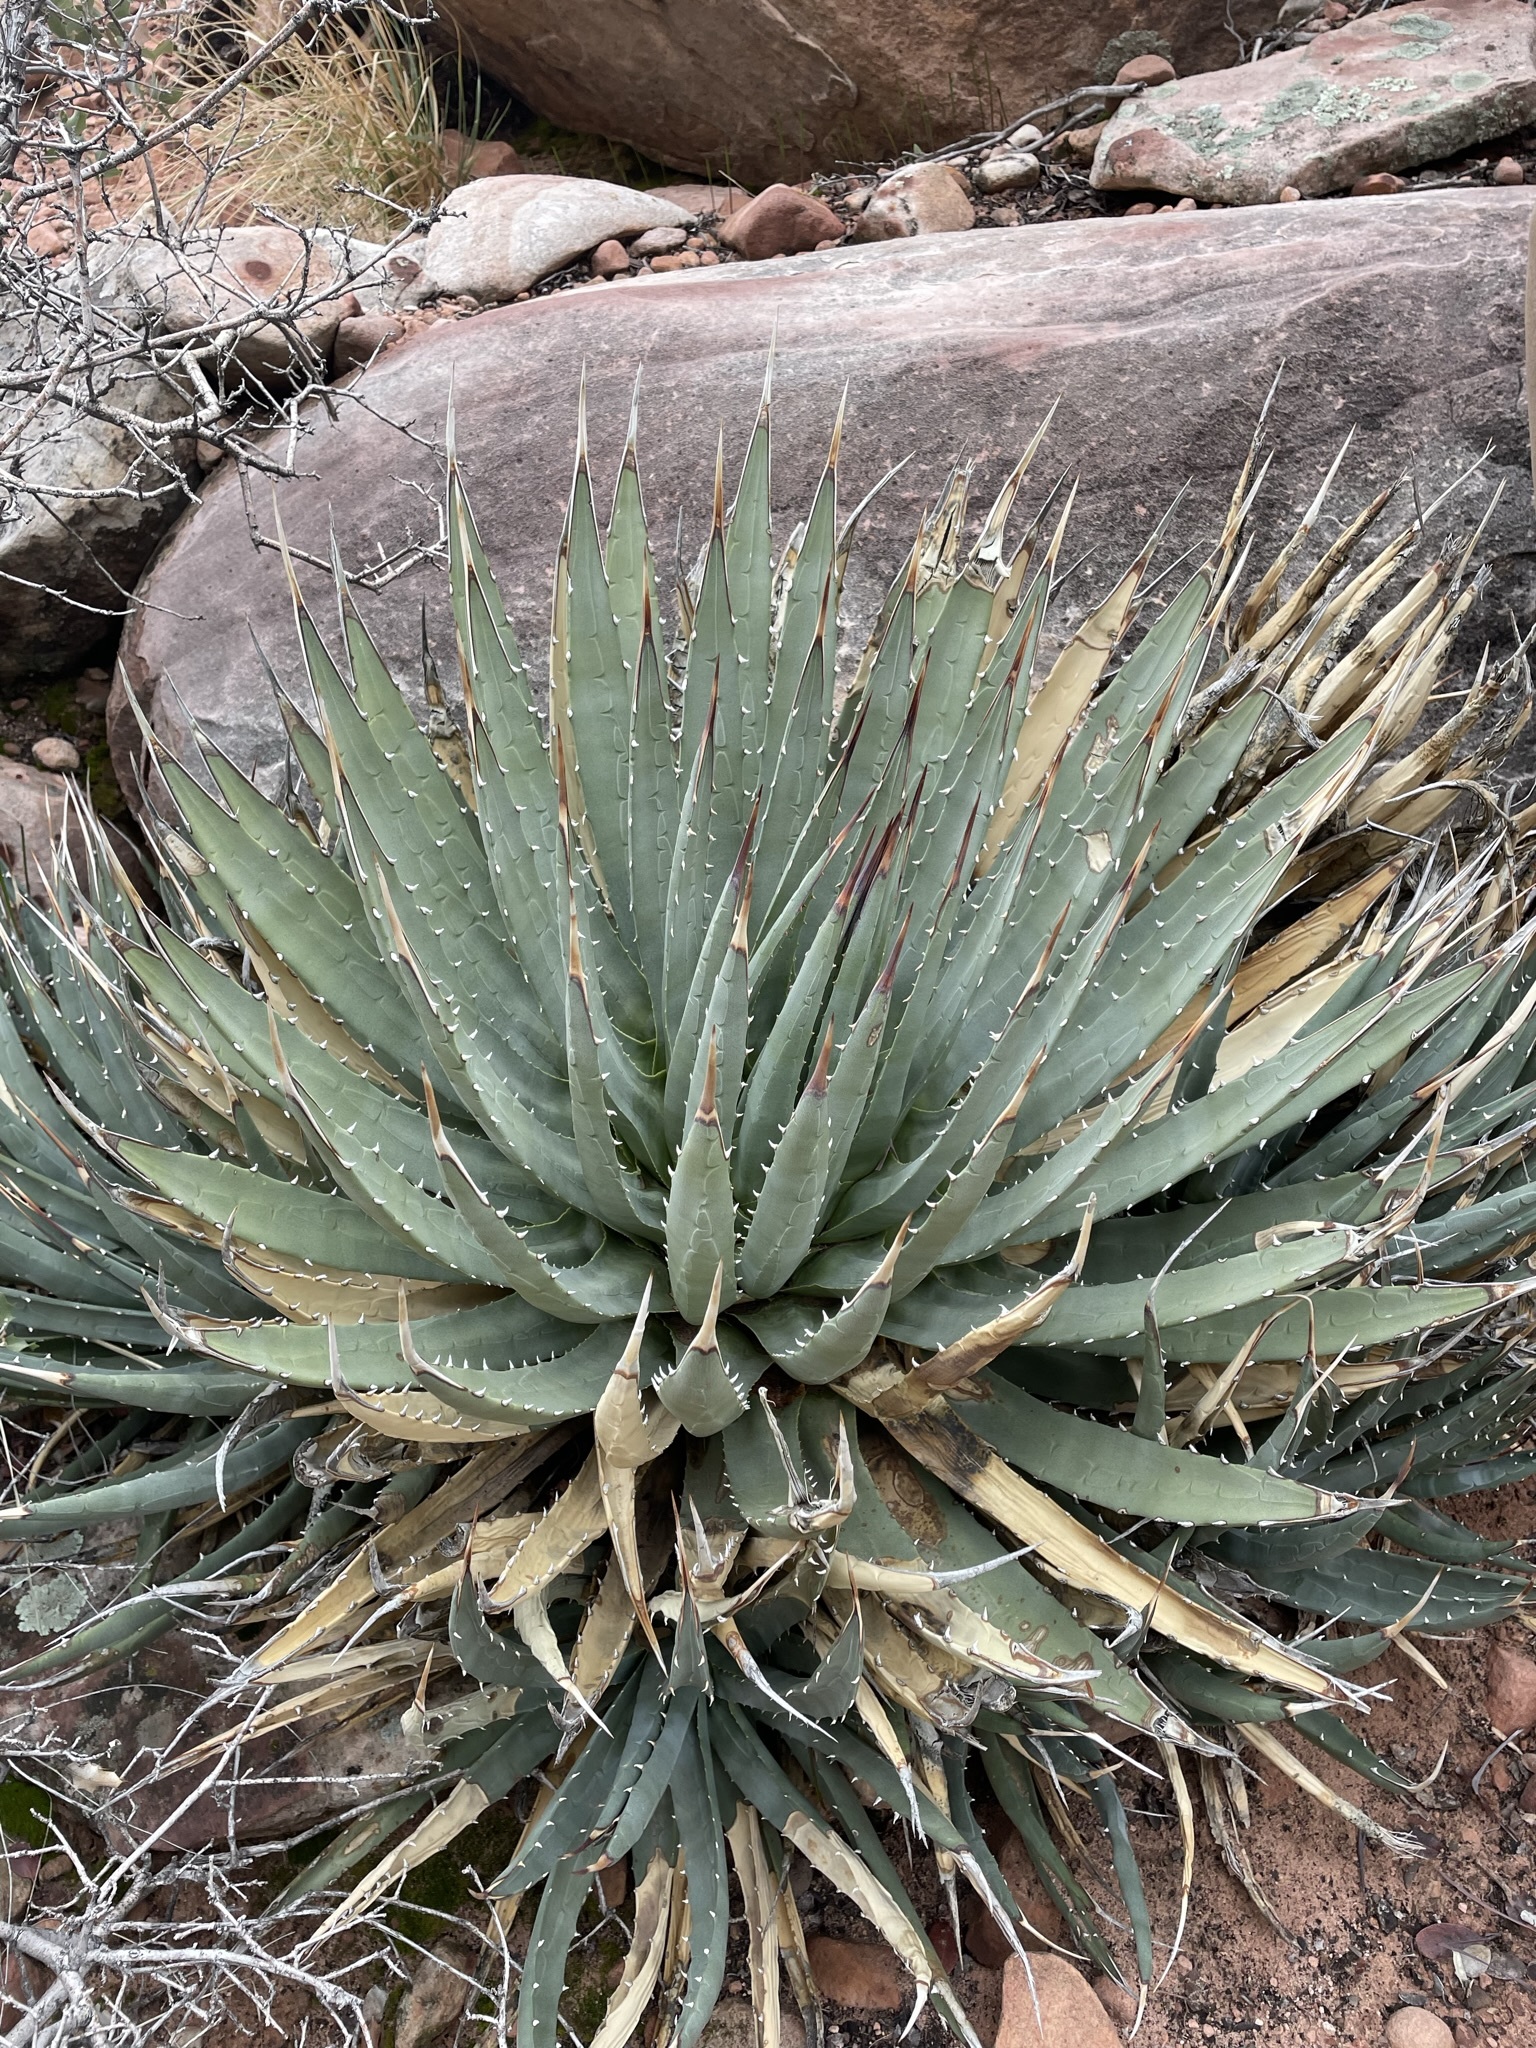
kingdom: Plantae
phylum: Tracheophyta
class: Liliopsida
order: Asparagales
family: Asparagaceae
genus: Agave
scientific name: Agave utahensis
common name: Utah agave
